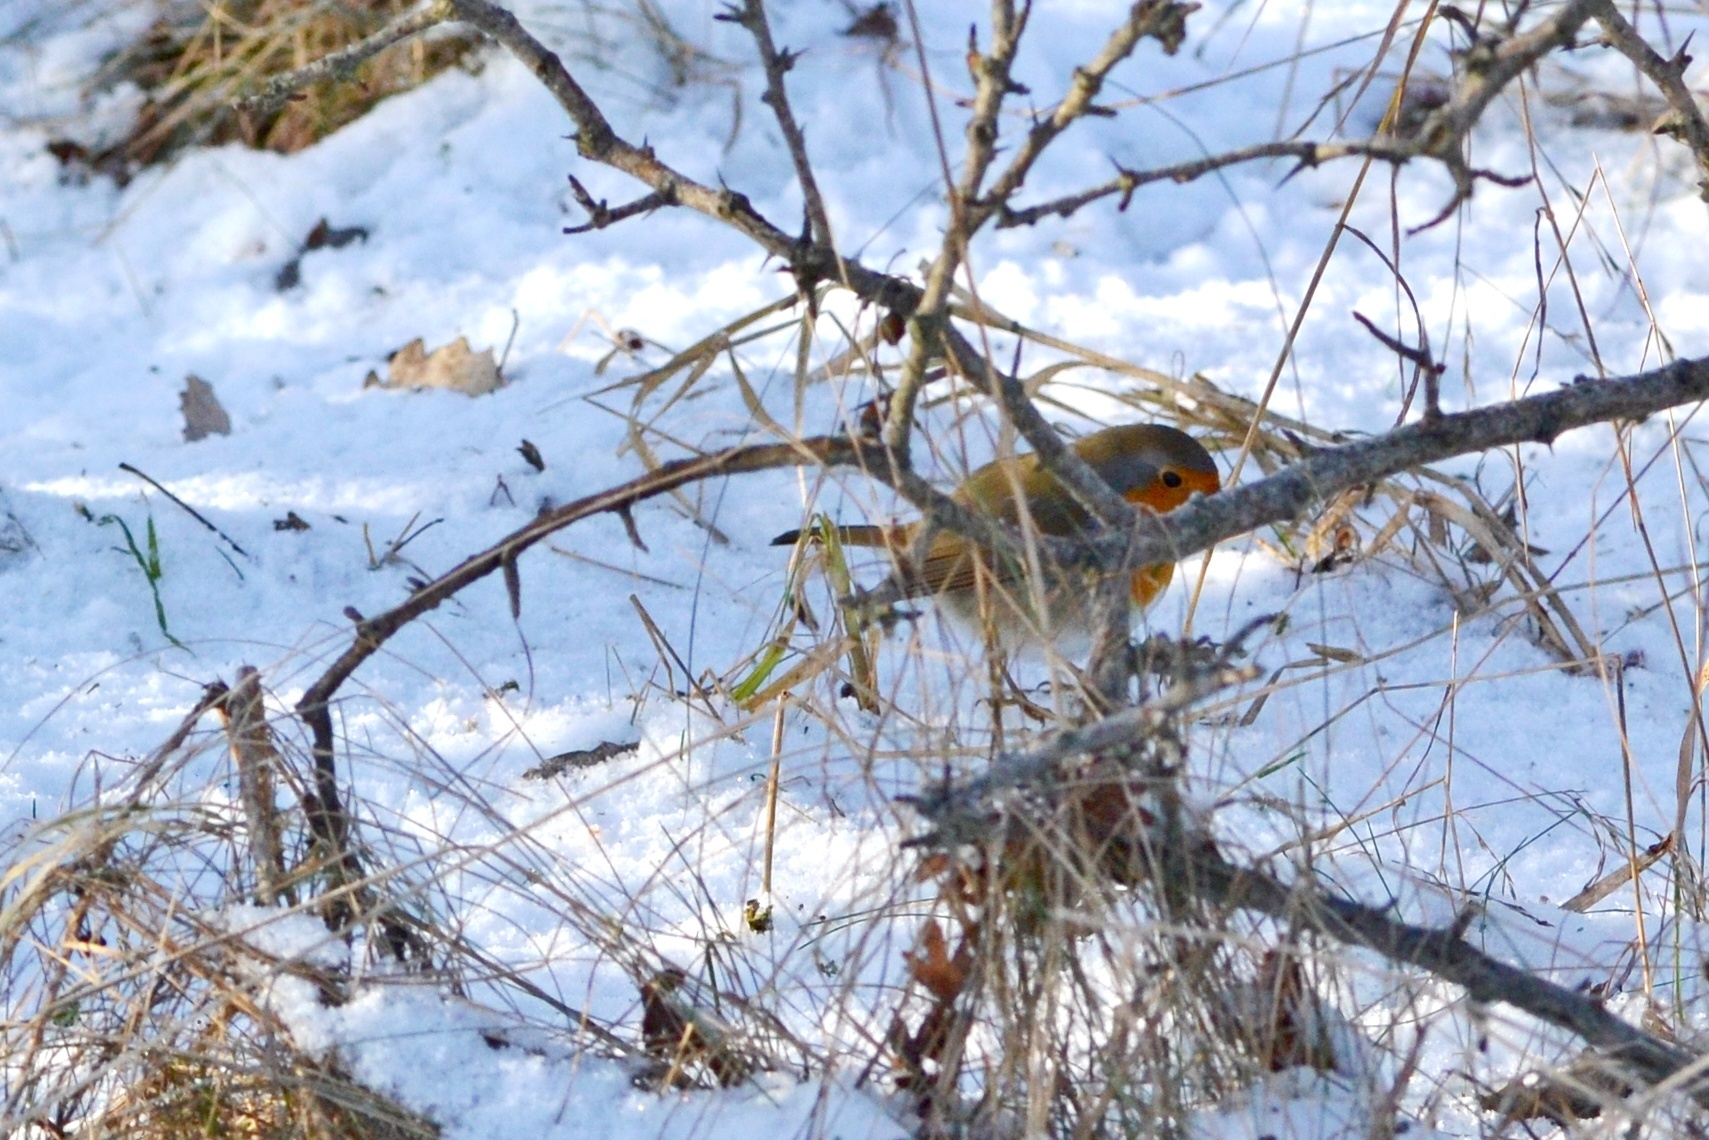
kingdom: Animalia
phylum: Chordata
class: Aves
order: Passeriformes
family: Muscicapidae
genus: Erithacus
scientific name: Erithacus rubecula
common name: European robin
